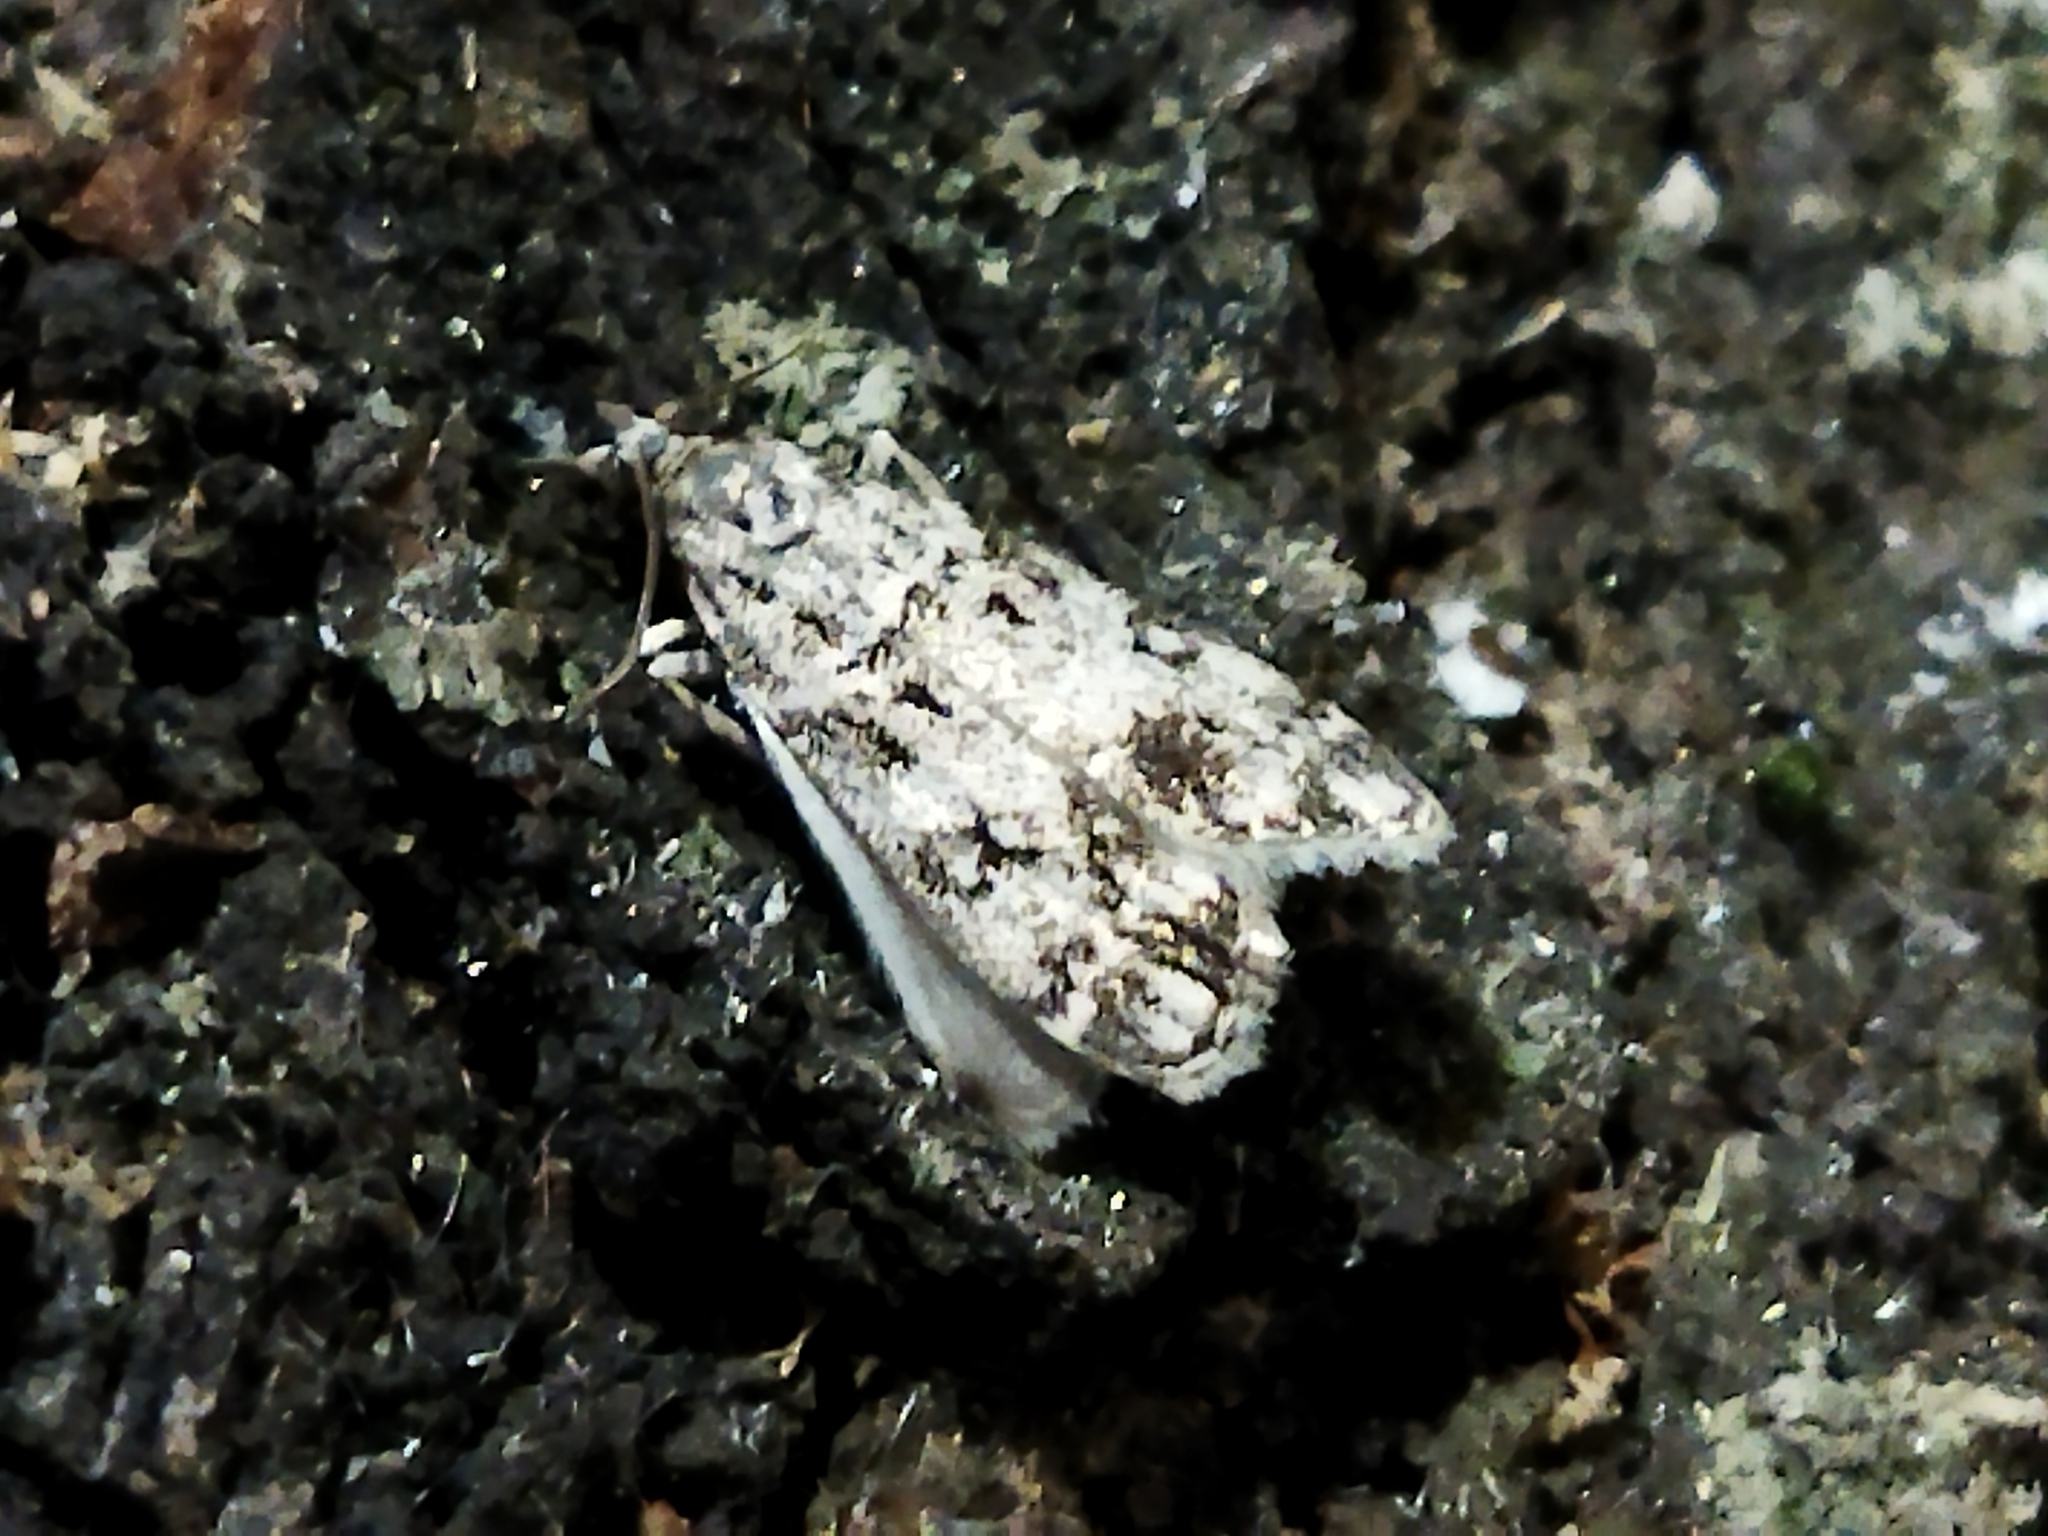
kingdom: Animalia
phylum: Arthropoda
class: Insecta
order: Lepidoptera
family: Crambidae
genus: Eudonia
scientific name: Eudonia lacustrata
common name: Little grey
